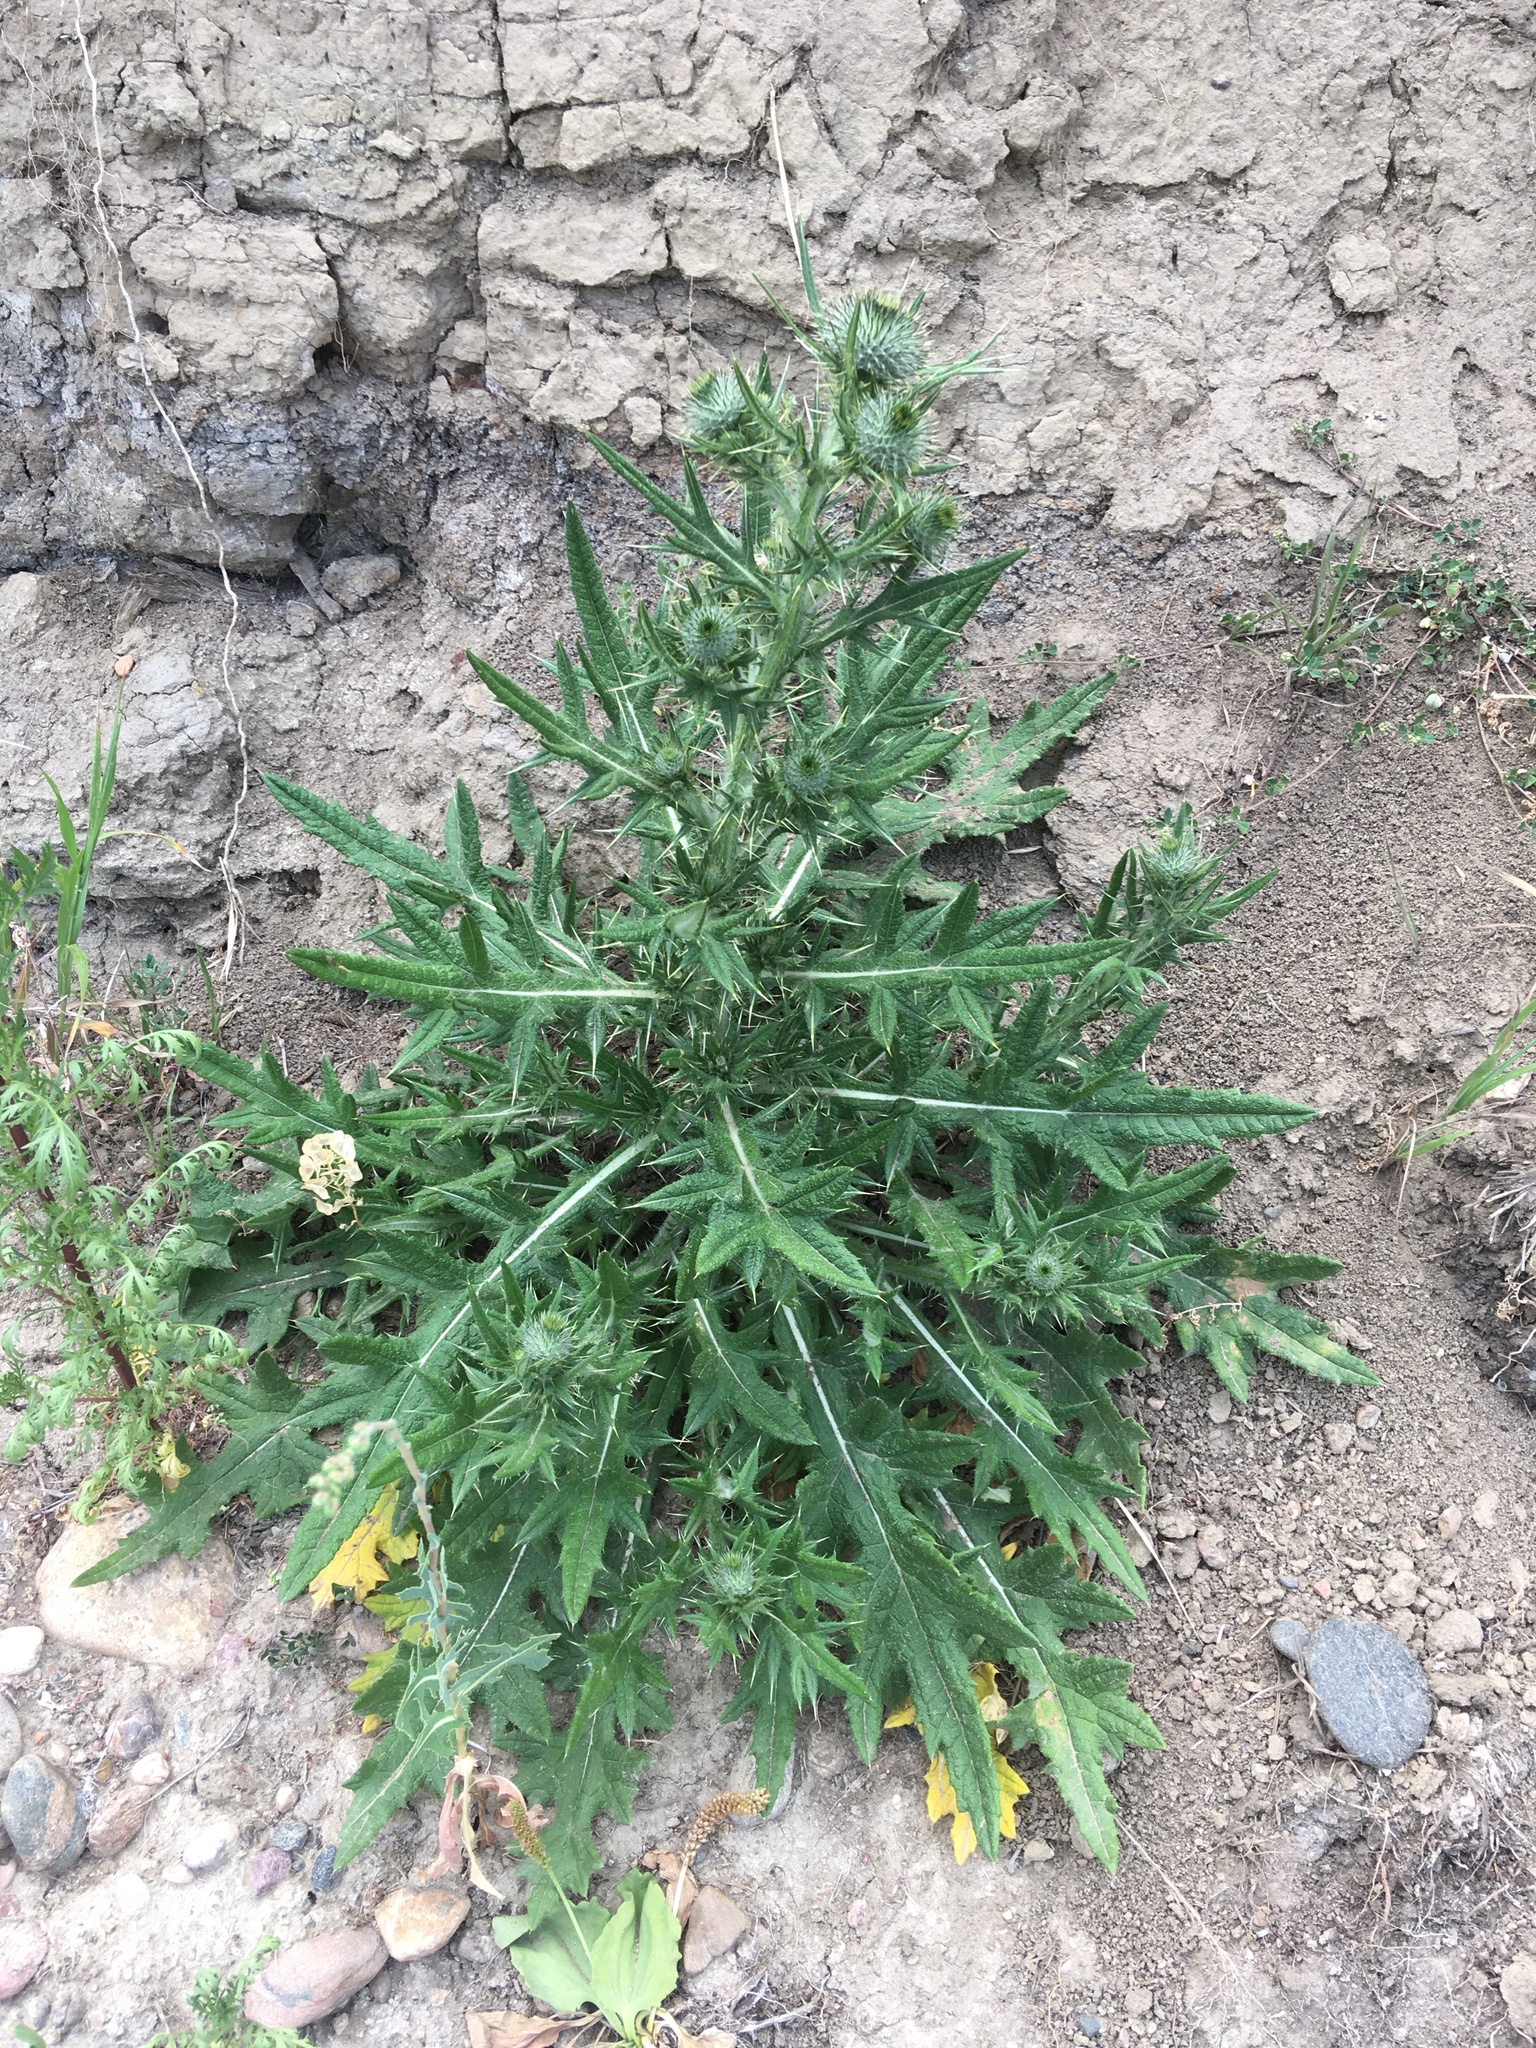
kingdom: Plantae
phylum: Tracheophyta
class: Magnoliopsida
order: Asterales
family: Asteraceae
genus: Cirsium
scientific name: Cirsium vulgare
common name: Bull thistle
